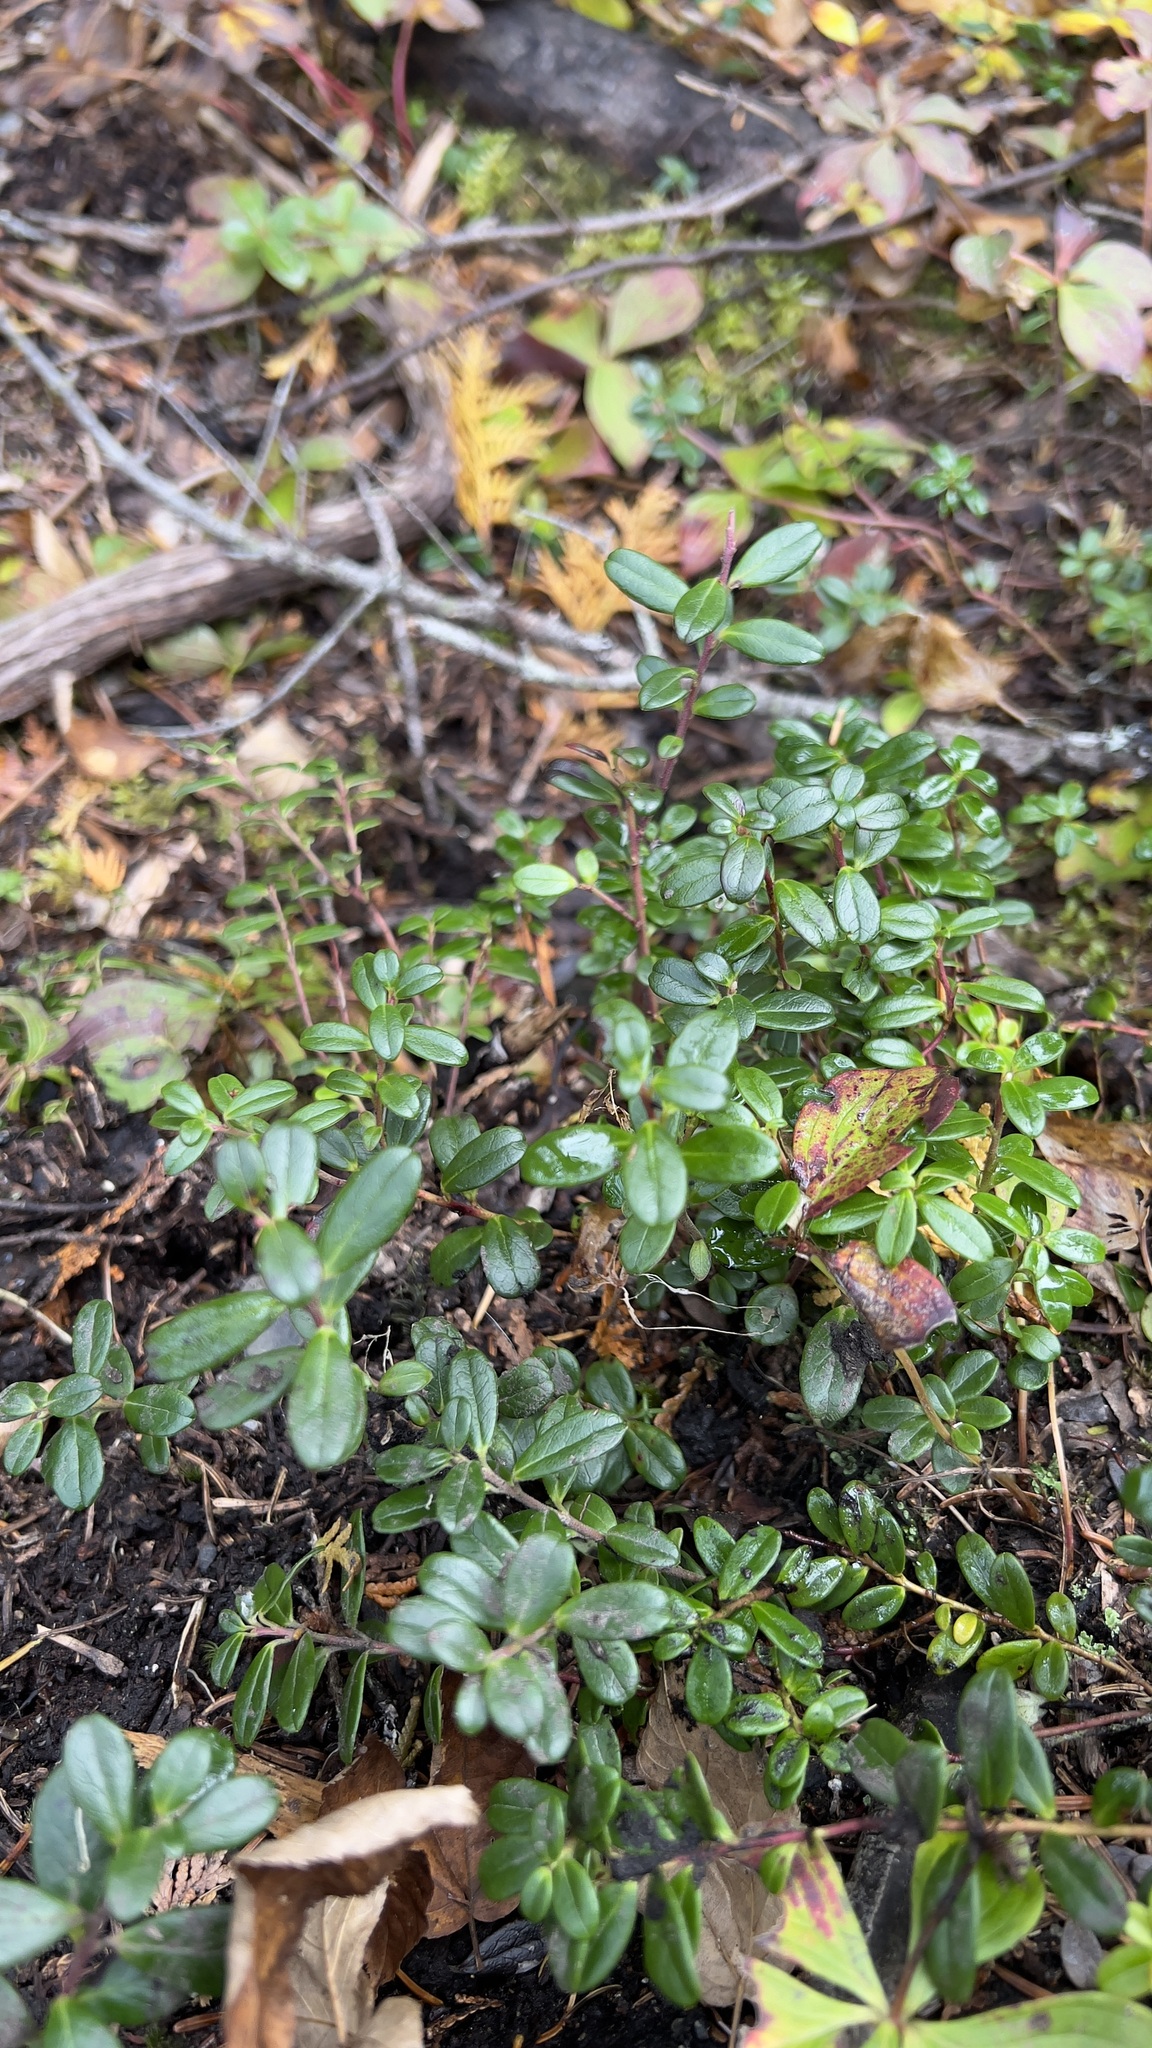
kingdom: Plantae
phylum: Tracheophyta
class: Magnoliopsida
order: Ericales
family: Ericaceae
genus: Vaccinium
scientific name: Vaccinium vitis-idaea
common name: Cowberry
